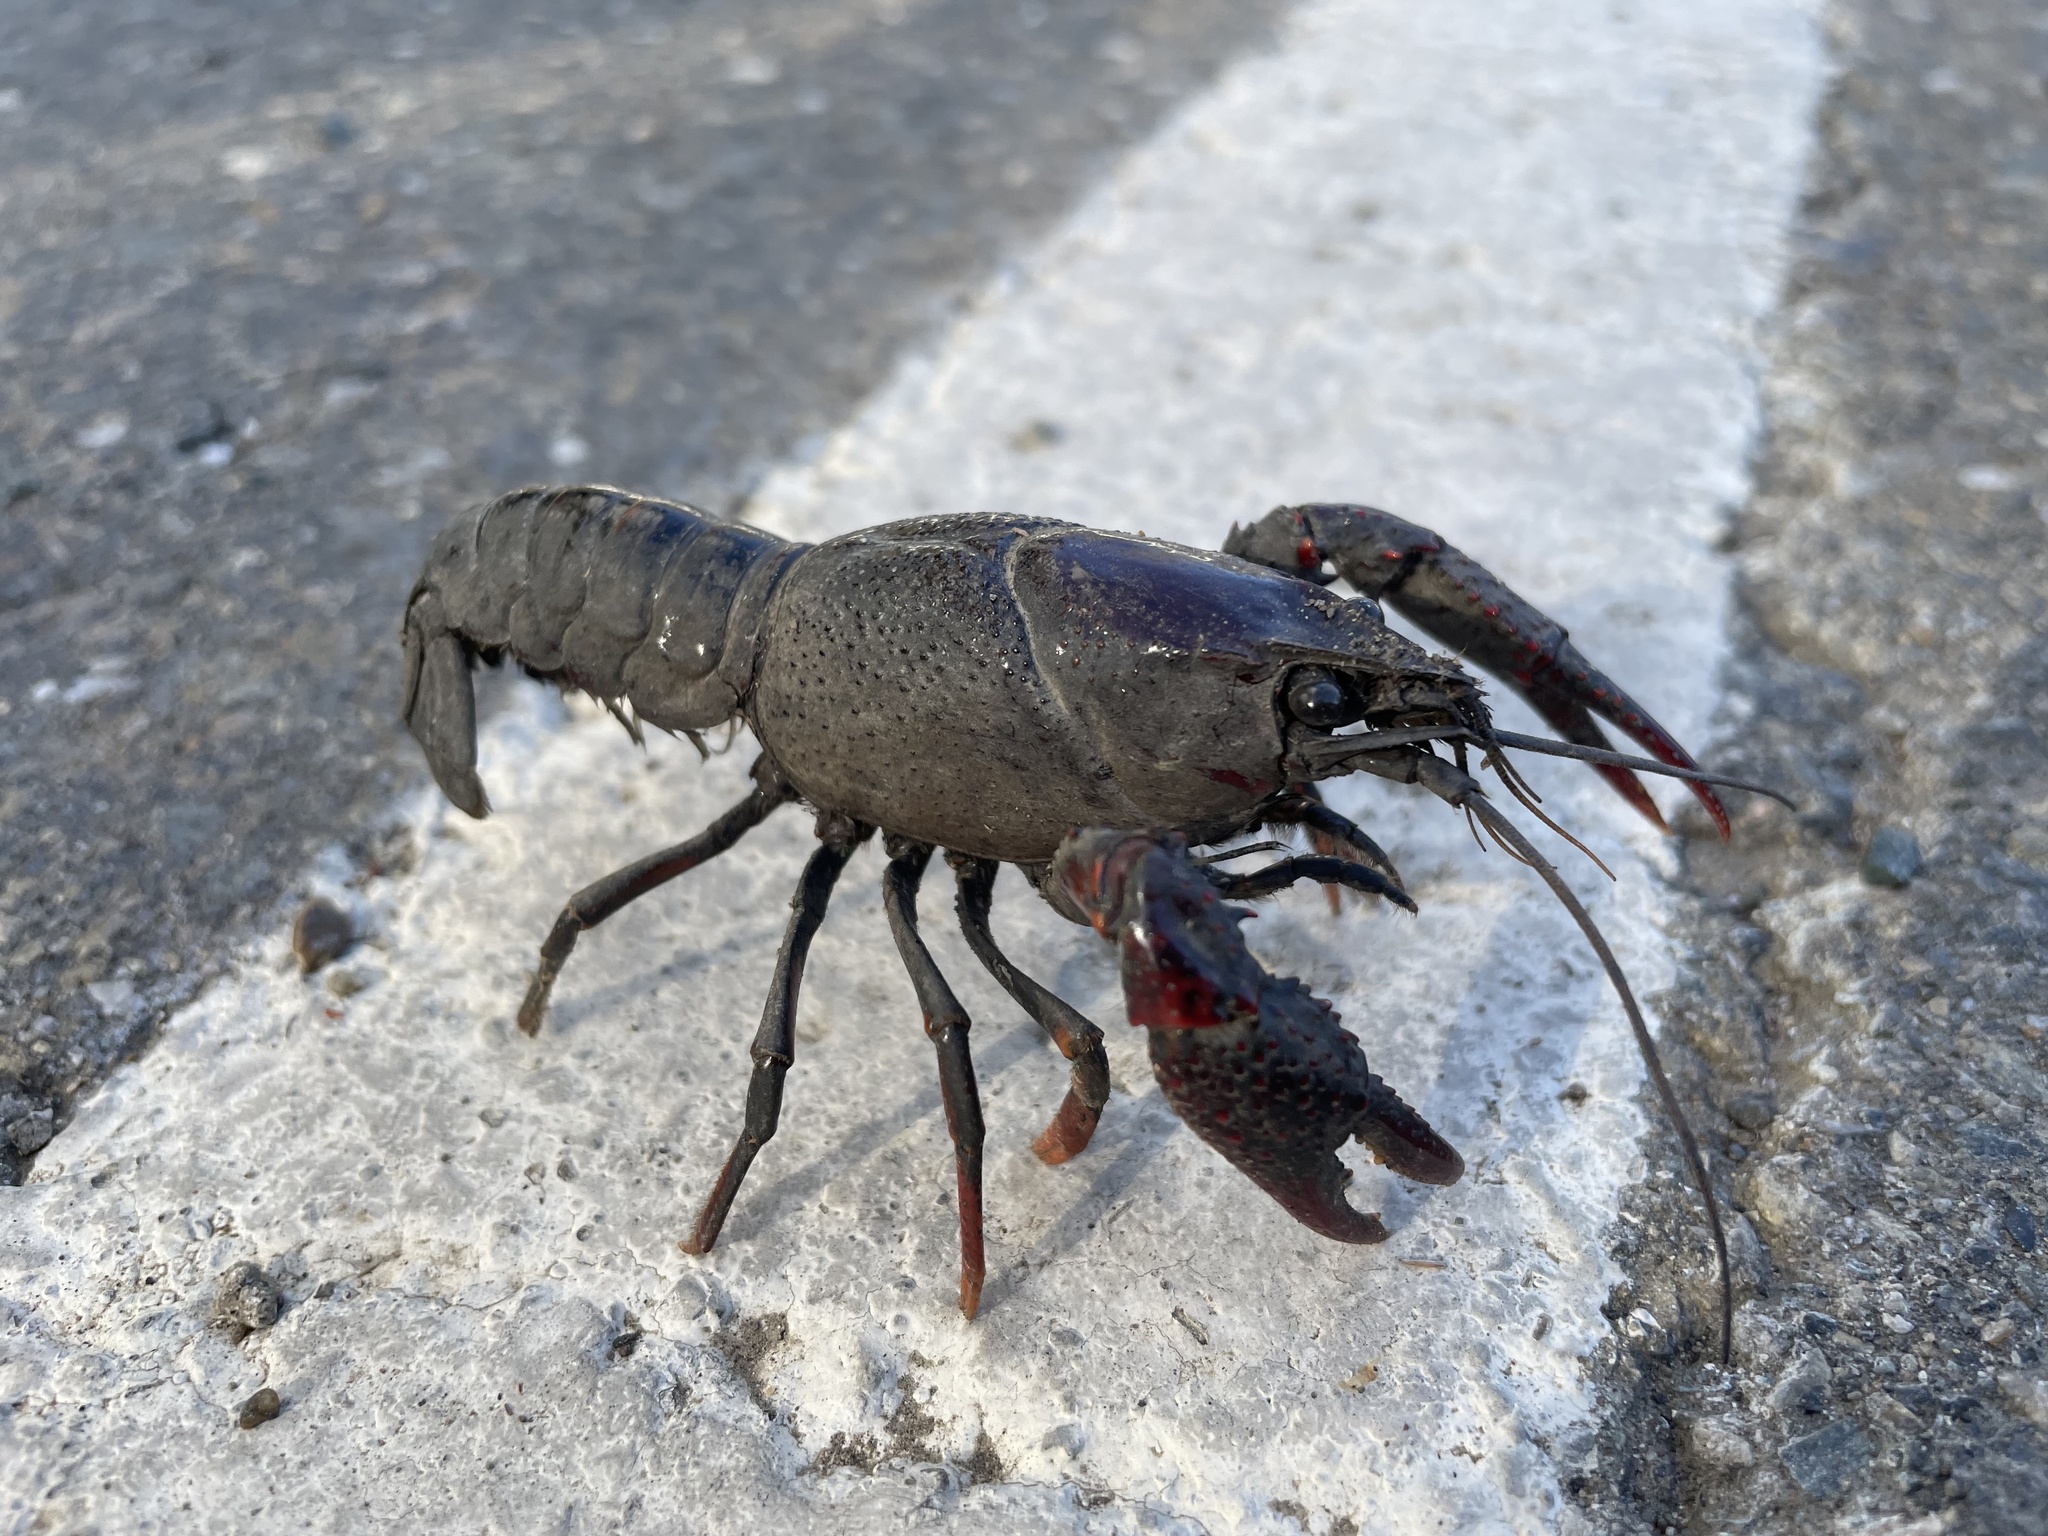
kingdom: Animalia
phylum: Arthropoda
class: Malacostraca
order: Decapoda
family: Cambaridae
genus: Procambarus
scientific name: Procambarus clarkii
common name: Red swamp crayfish
